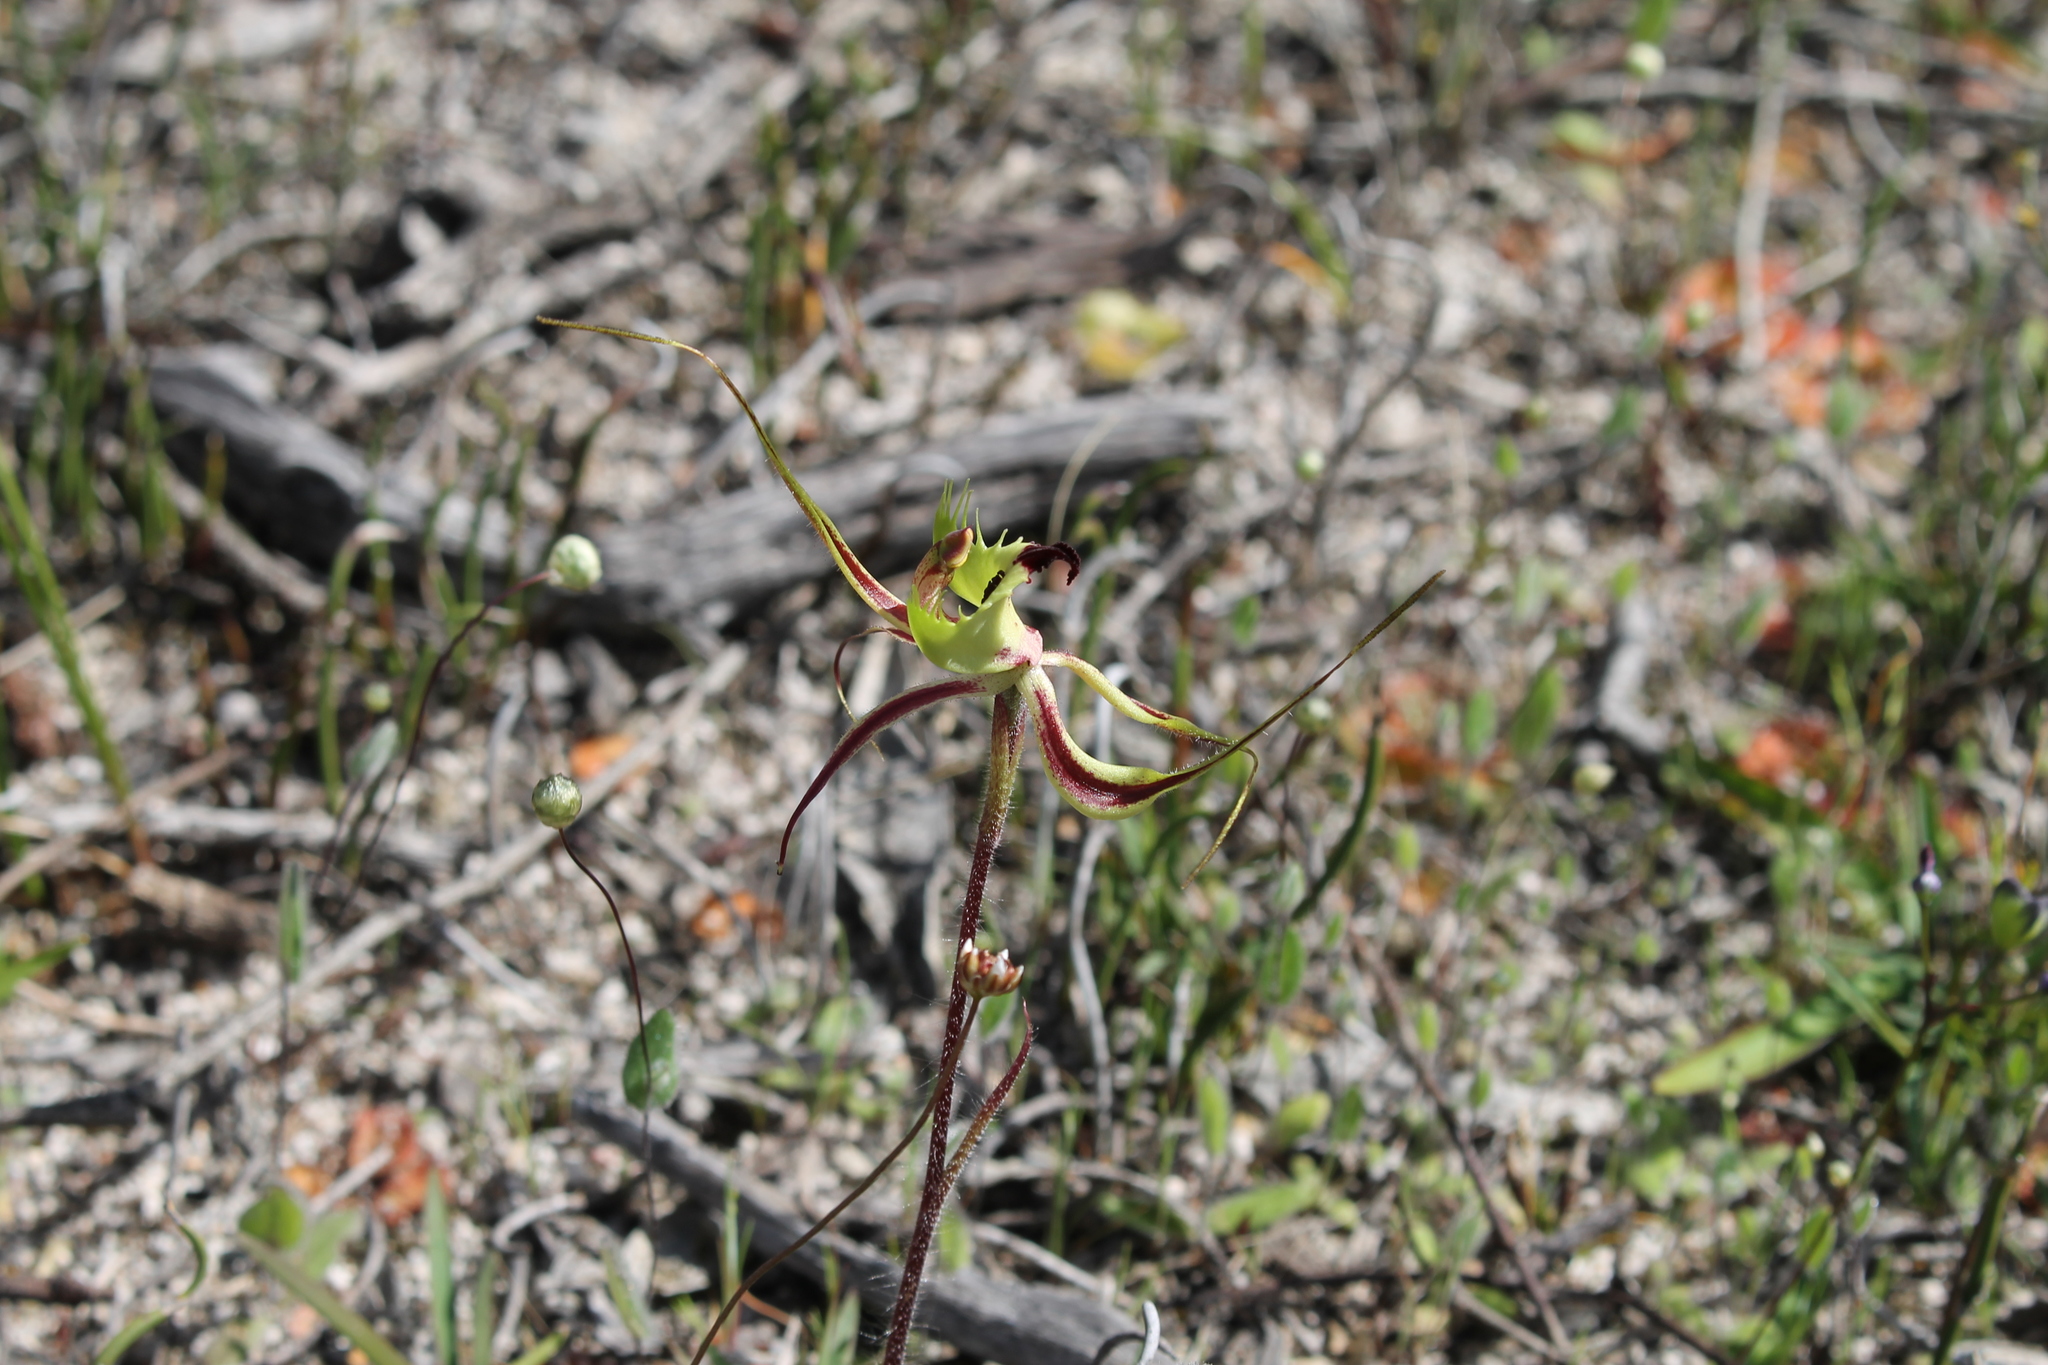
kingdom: Plantae
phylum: Tracheophyta
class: Liliopsida
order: Asparagales
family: Orchidaceae
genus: Caladenia
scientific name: Caladenia falcata
